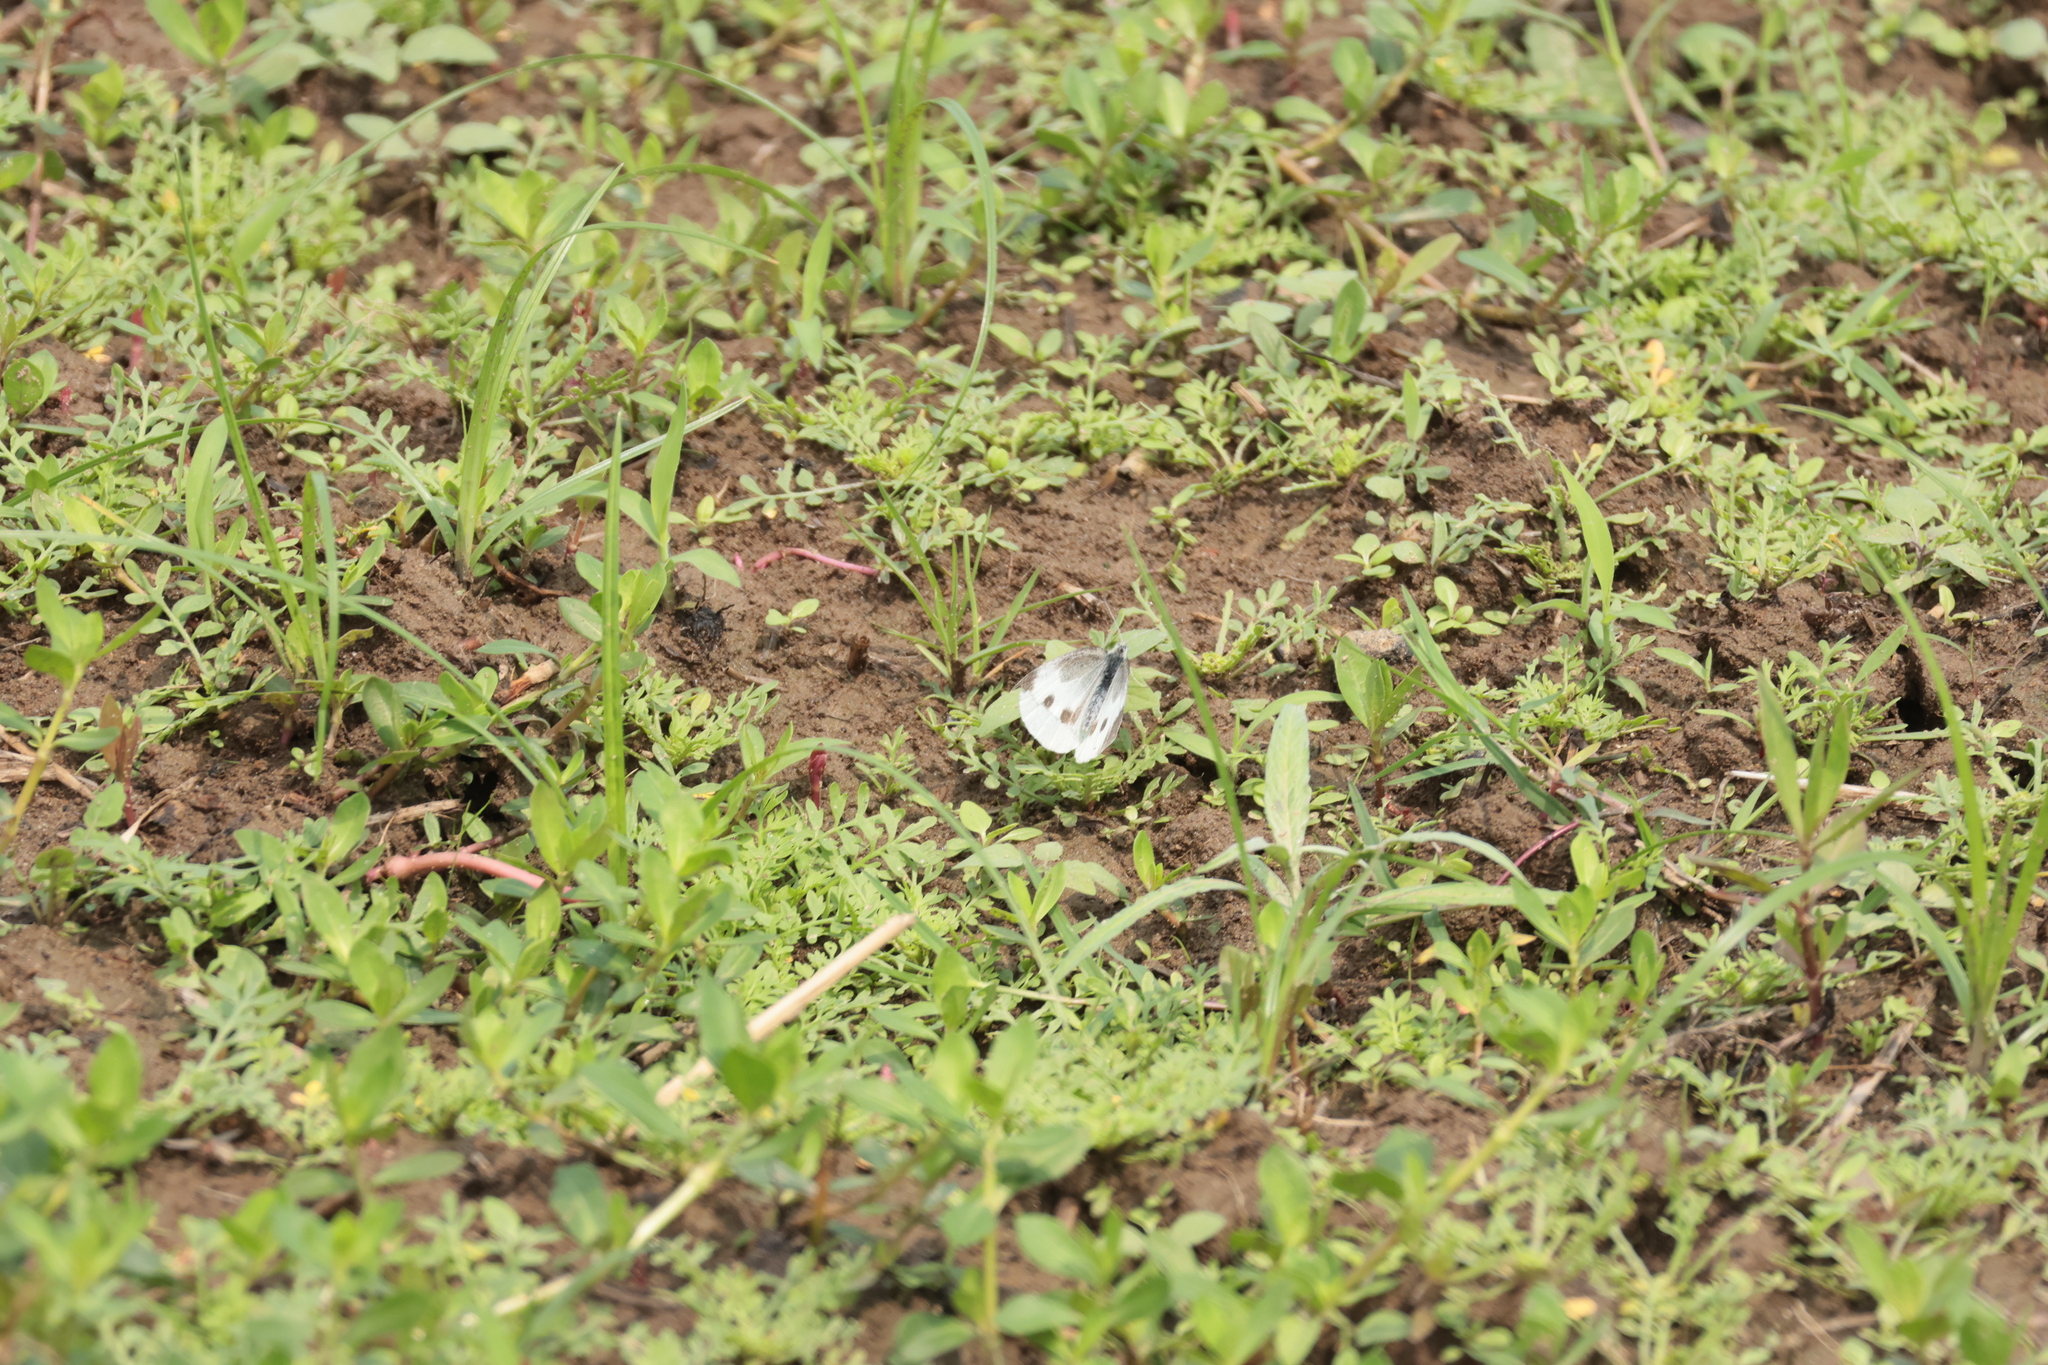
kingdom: Animalia
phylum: Arthropoda
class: Insecta
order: Lepidoptera
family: Pieridae
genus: Pieris
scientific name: Pieris canidia
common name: Indian cabbage white
